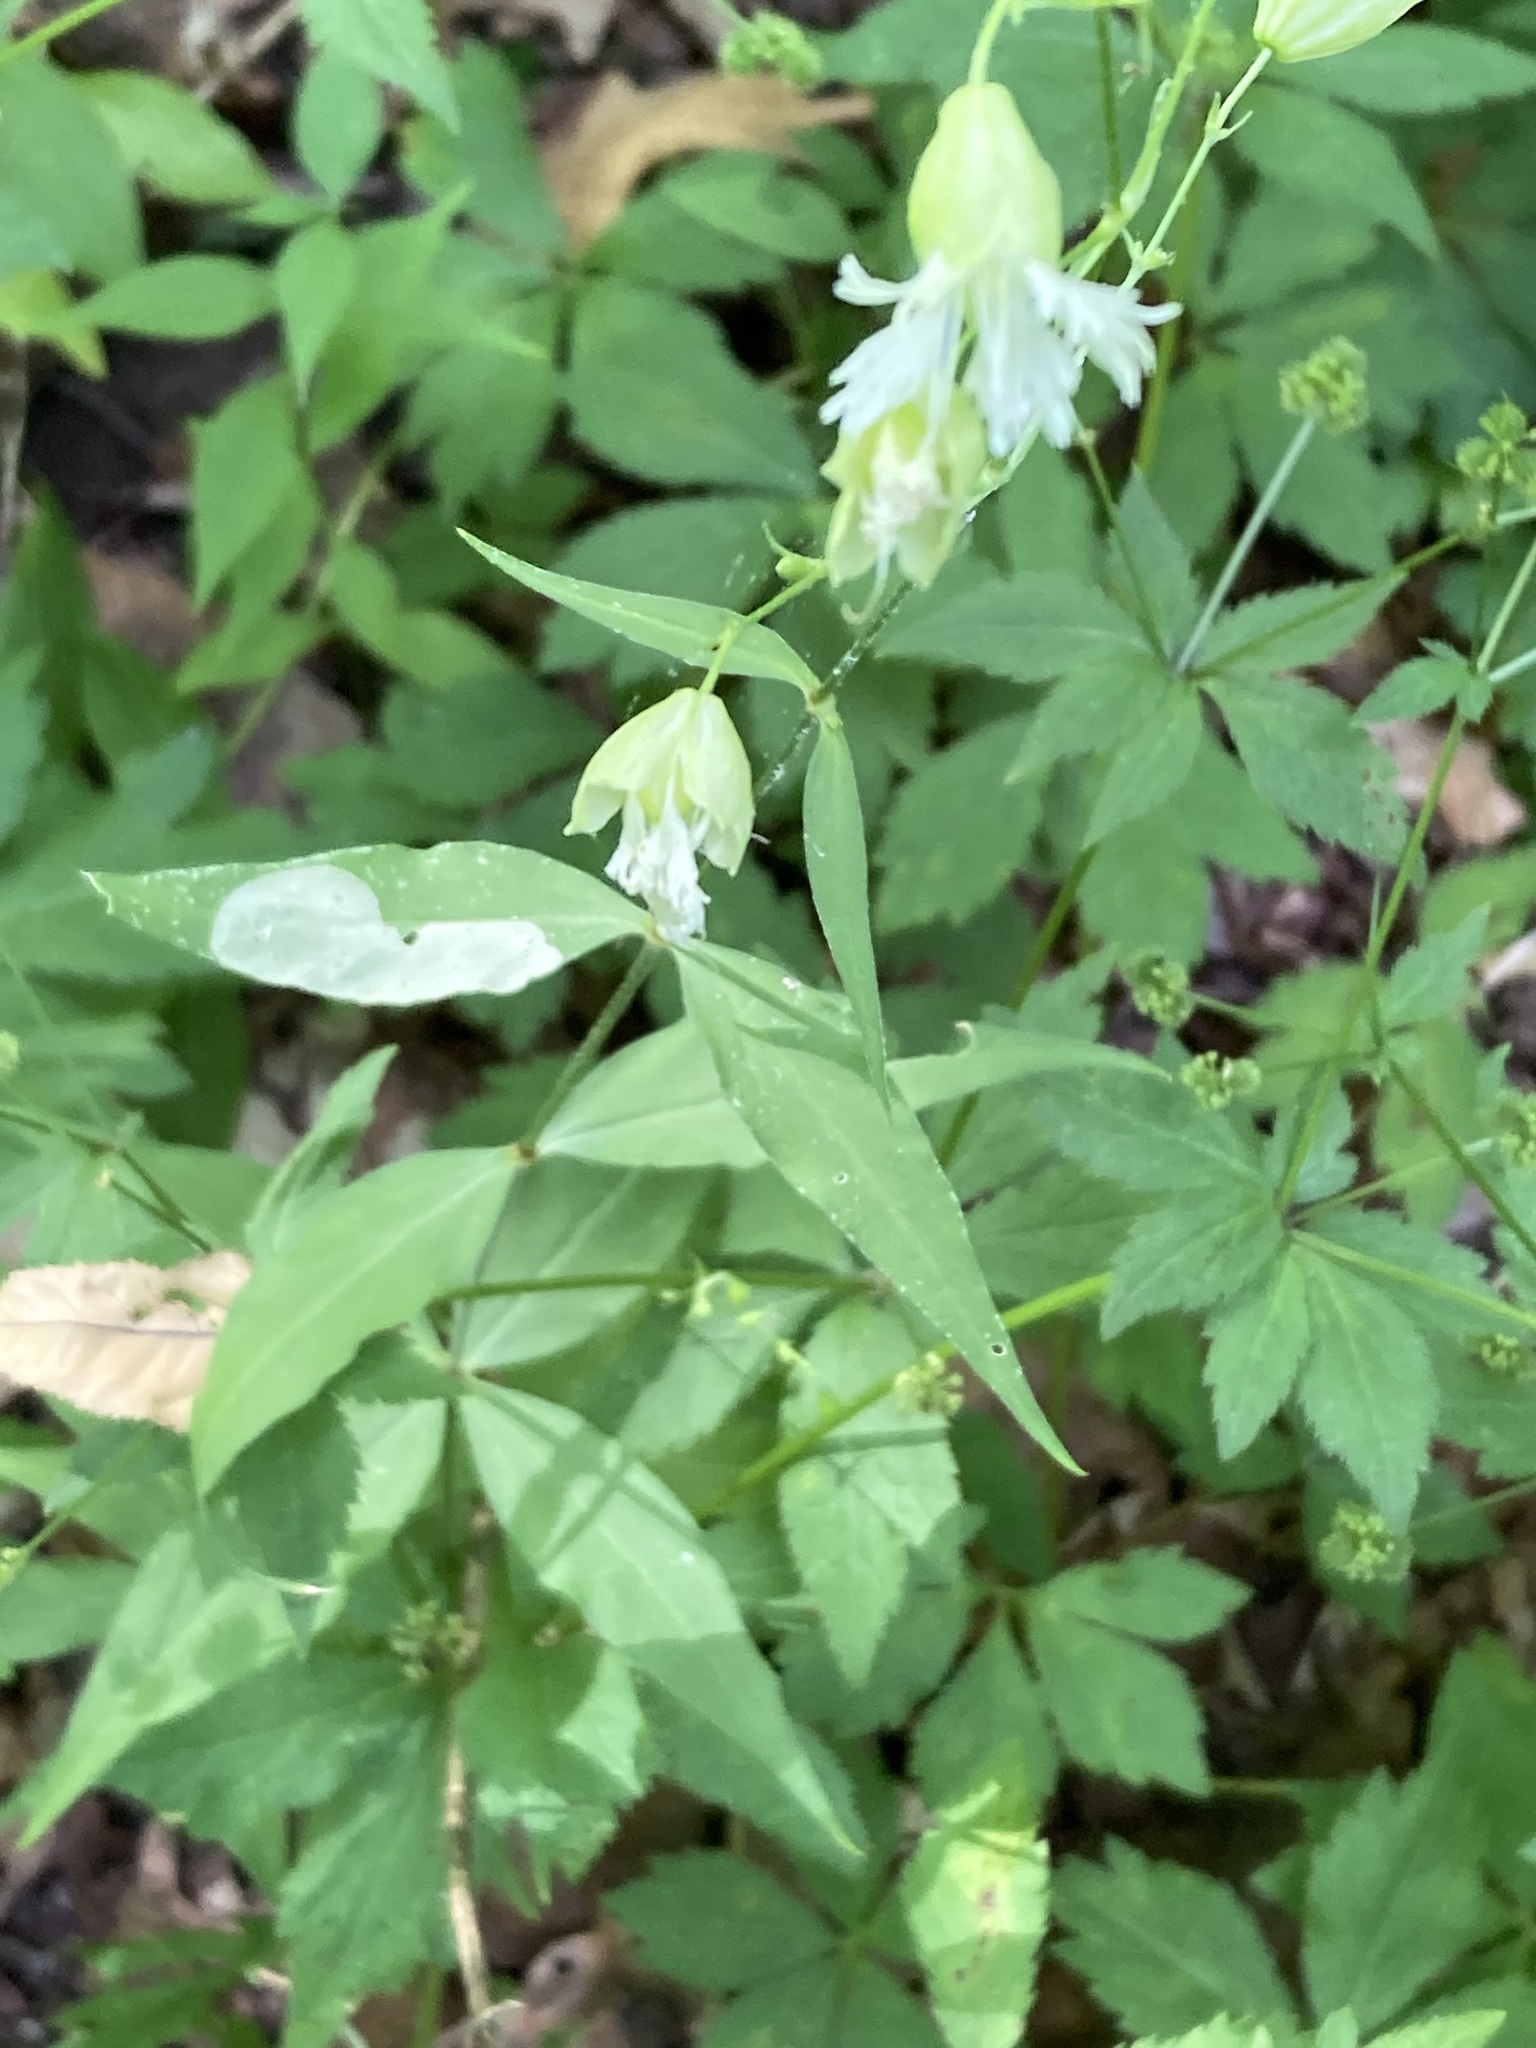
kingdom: Plantae
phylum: Tracheophyta
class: Magnoliopsida
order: Caryophyllales
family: Caryophyllaceae
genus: Silene
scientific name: Silene stellata
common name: Starry campion
